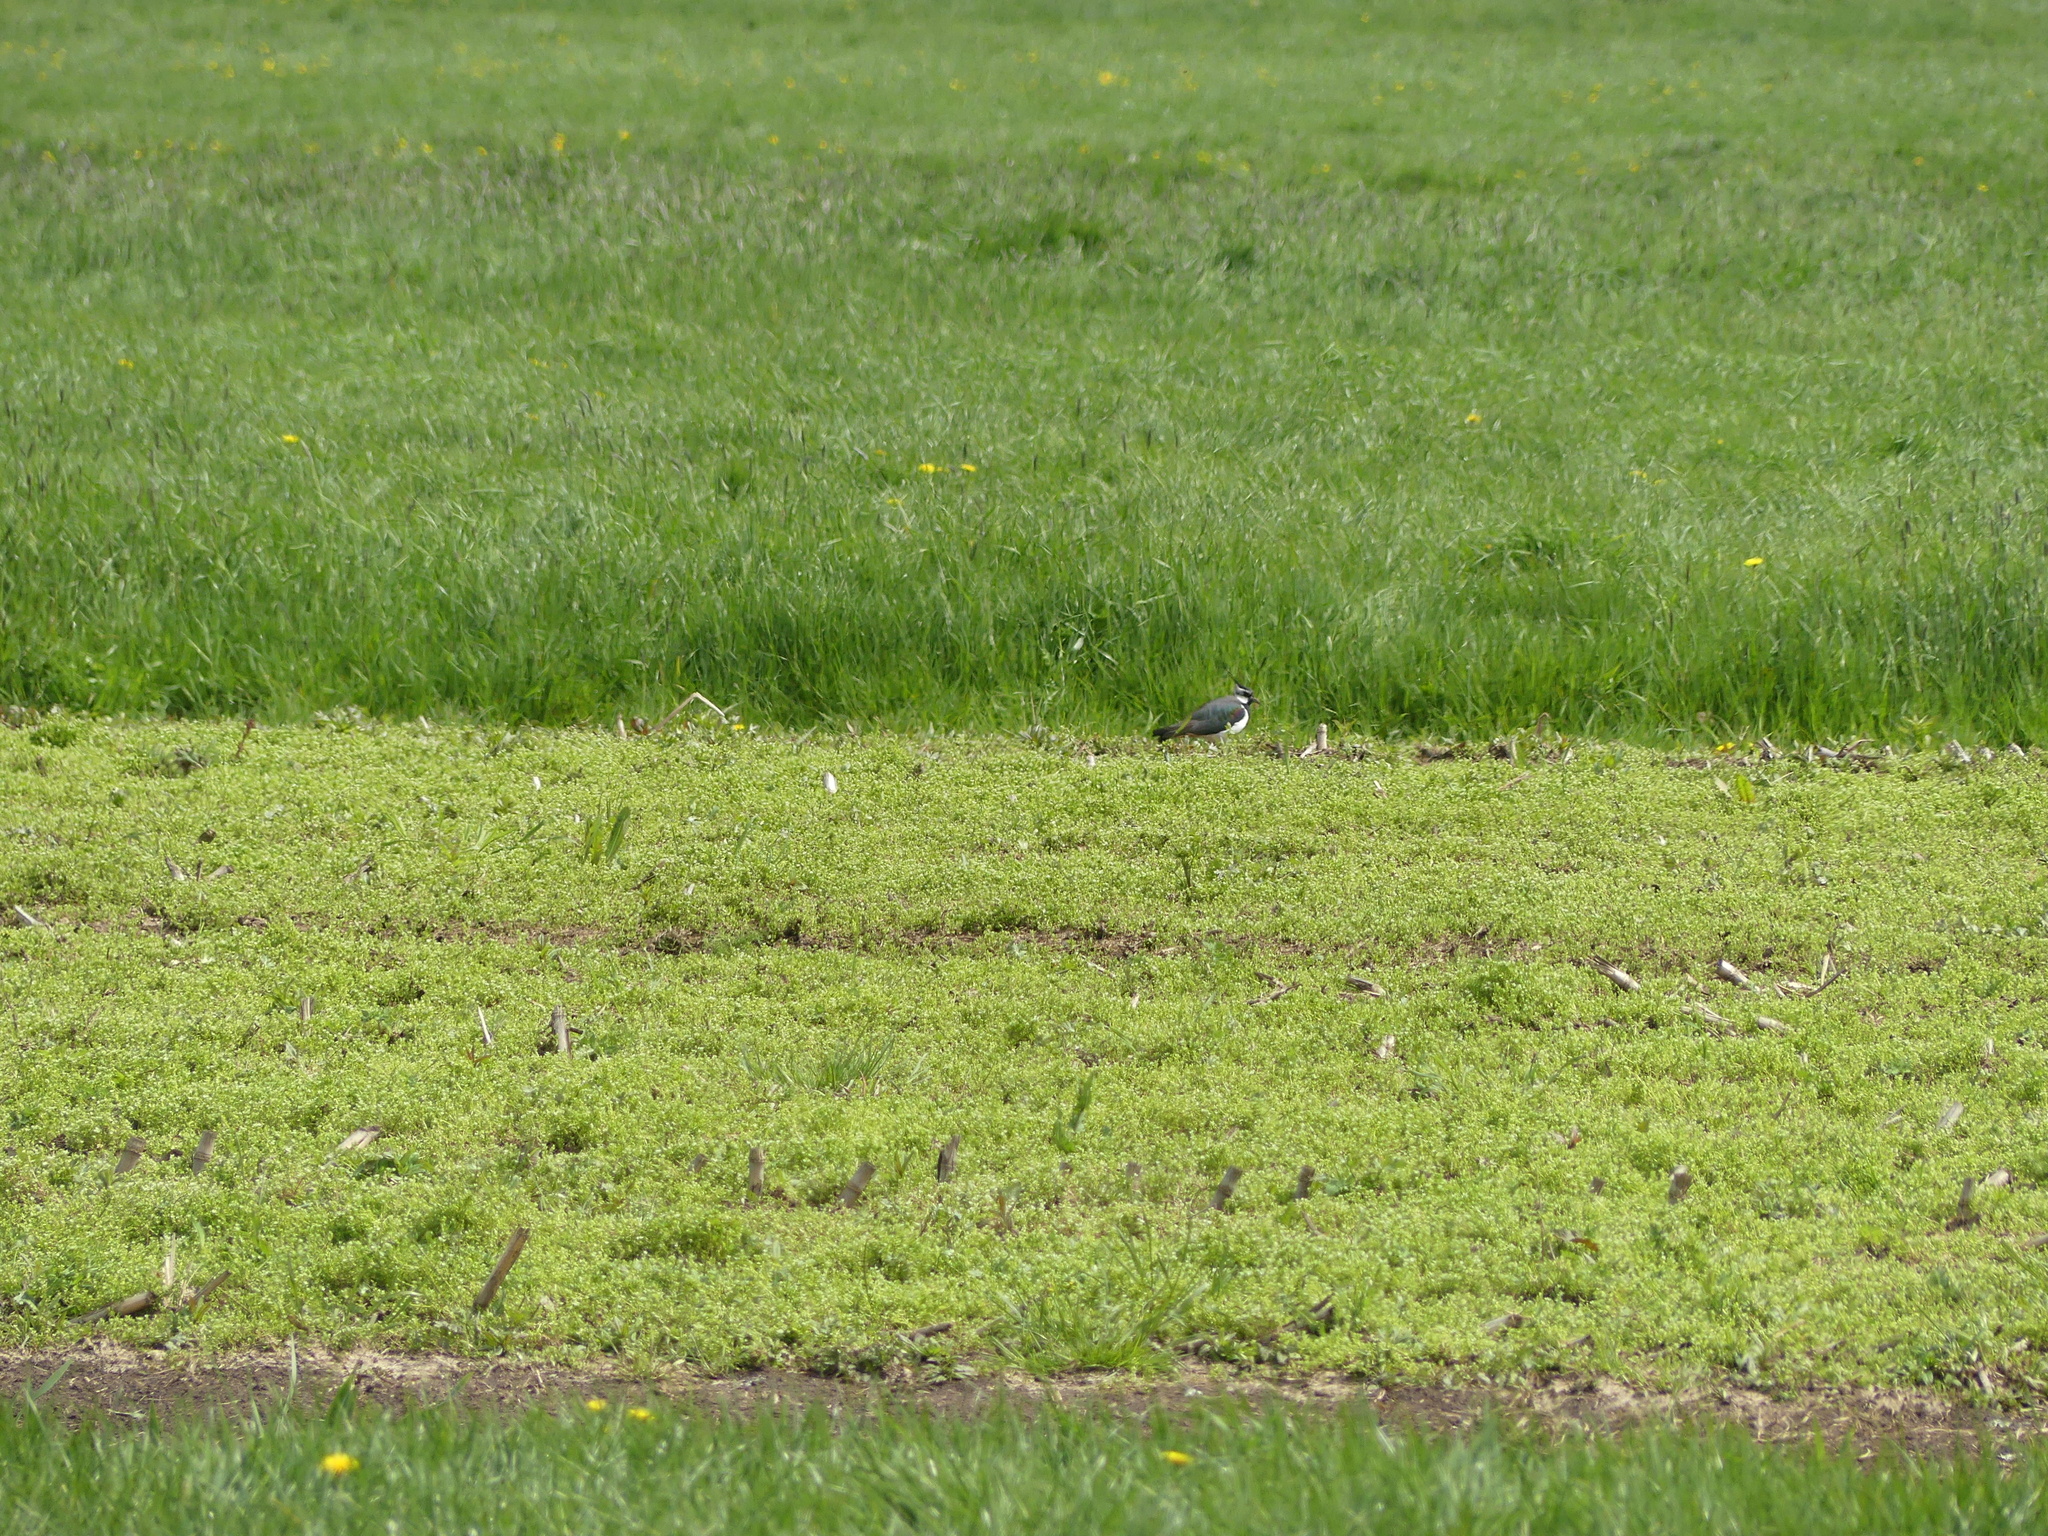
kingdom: Animalia
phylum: Chordata
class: Aves
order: Charadriiformes
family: Charadriidae
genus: Vanellus
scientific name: Vanellus vanellus
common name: Northern lapwing
